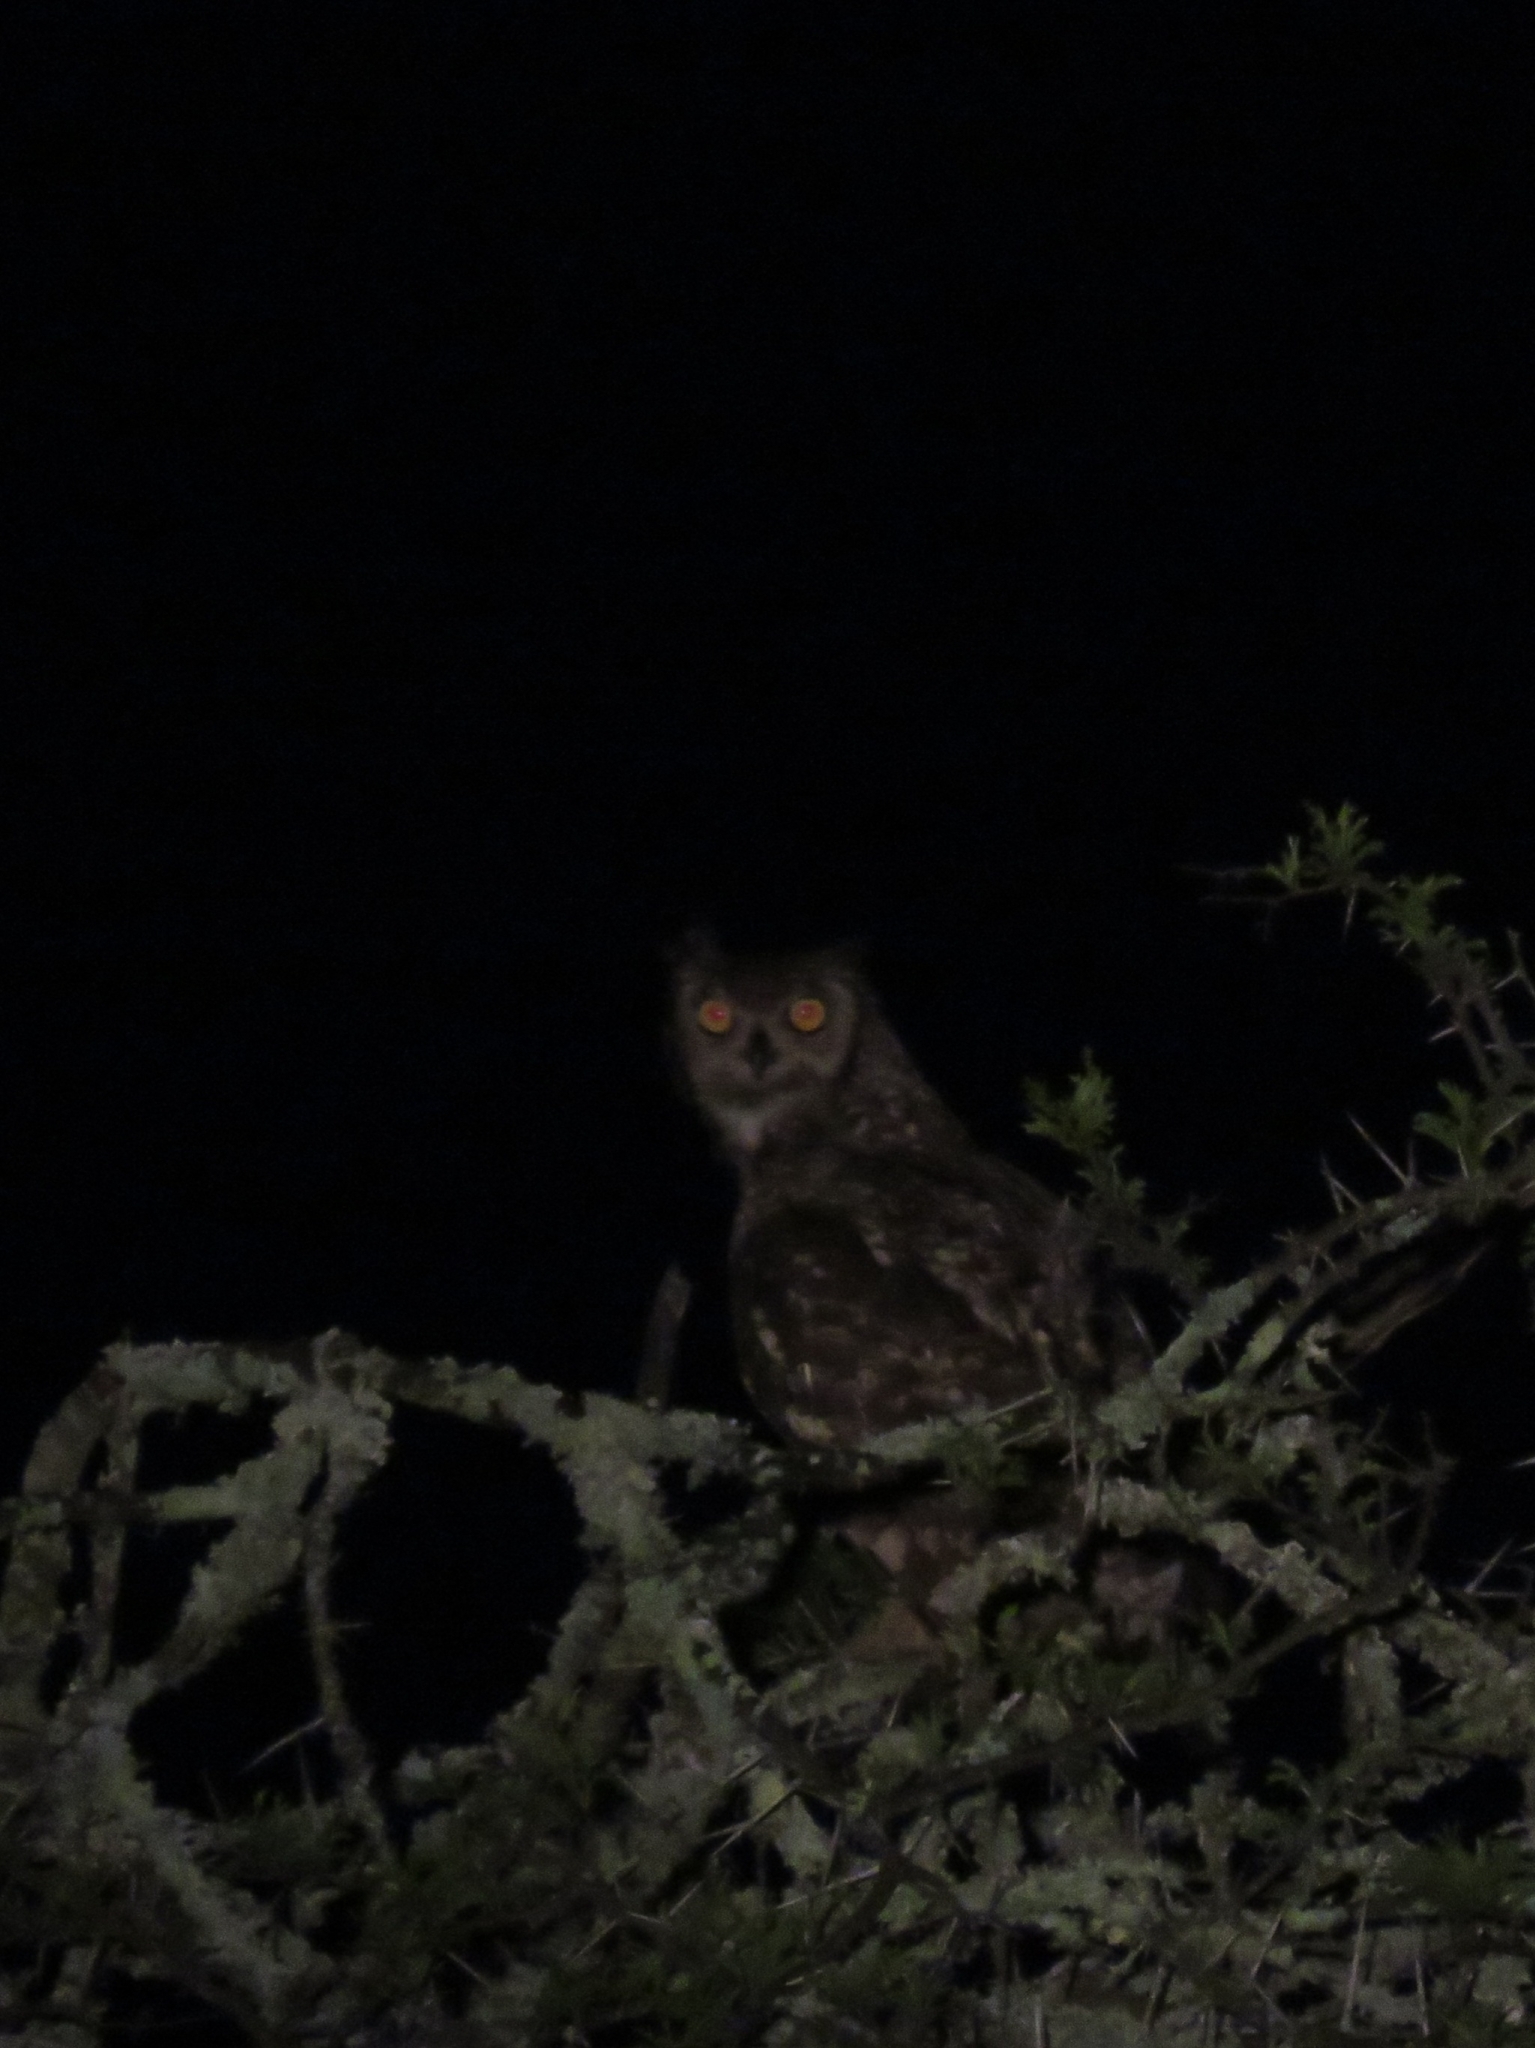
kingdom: Animalia
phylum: Chordata
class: Aves
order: Strigiformes
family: Strigidae
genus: Bubo
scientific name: Bubo africanus
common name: Spotted eagle-owl
